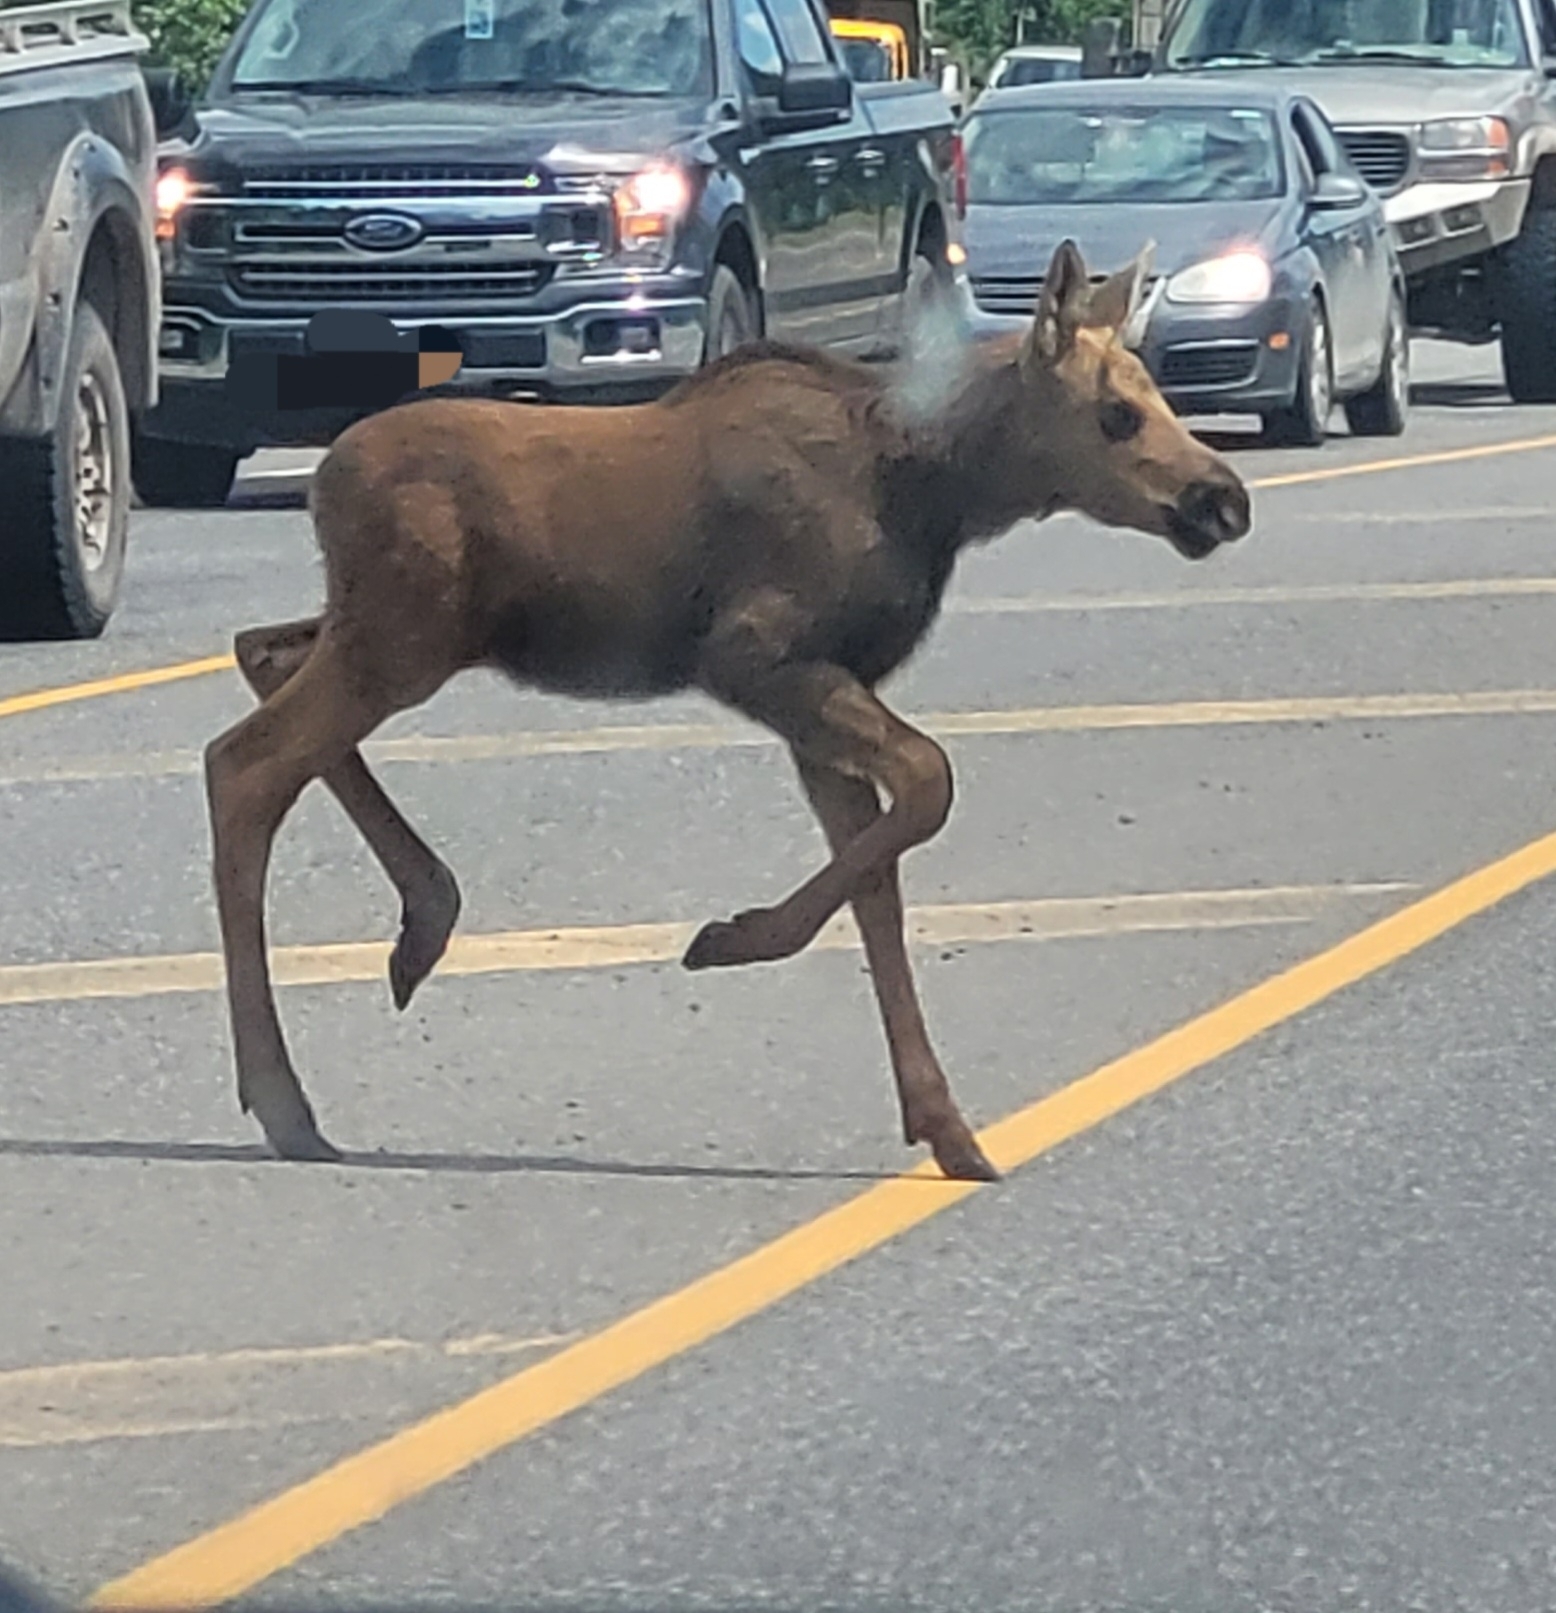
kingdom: Animalia
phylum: Chordata
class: Mammalia
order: Artiodactyla
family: Cervidae
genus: Alces
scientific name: Alces americanus
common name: Moose
